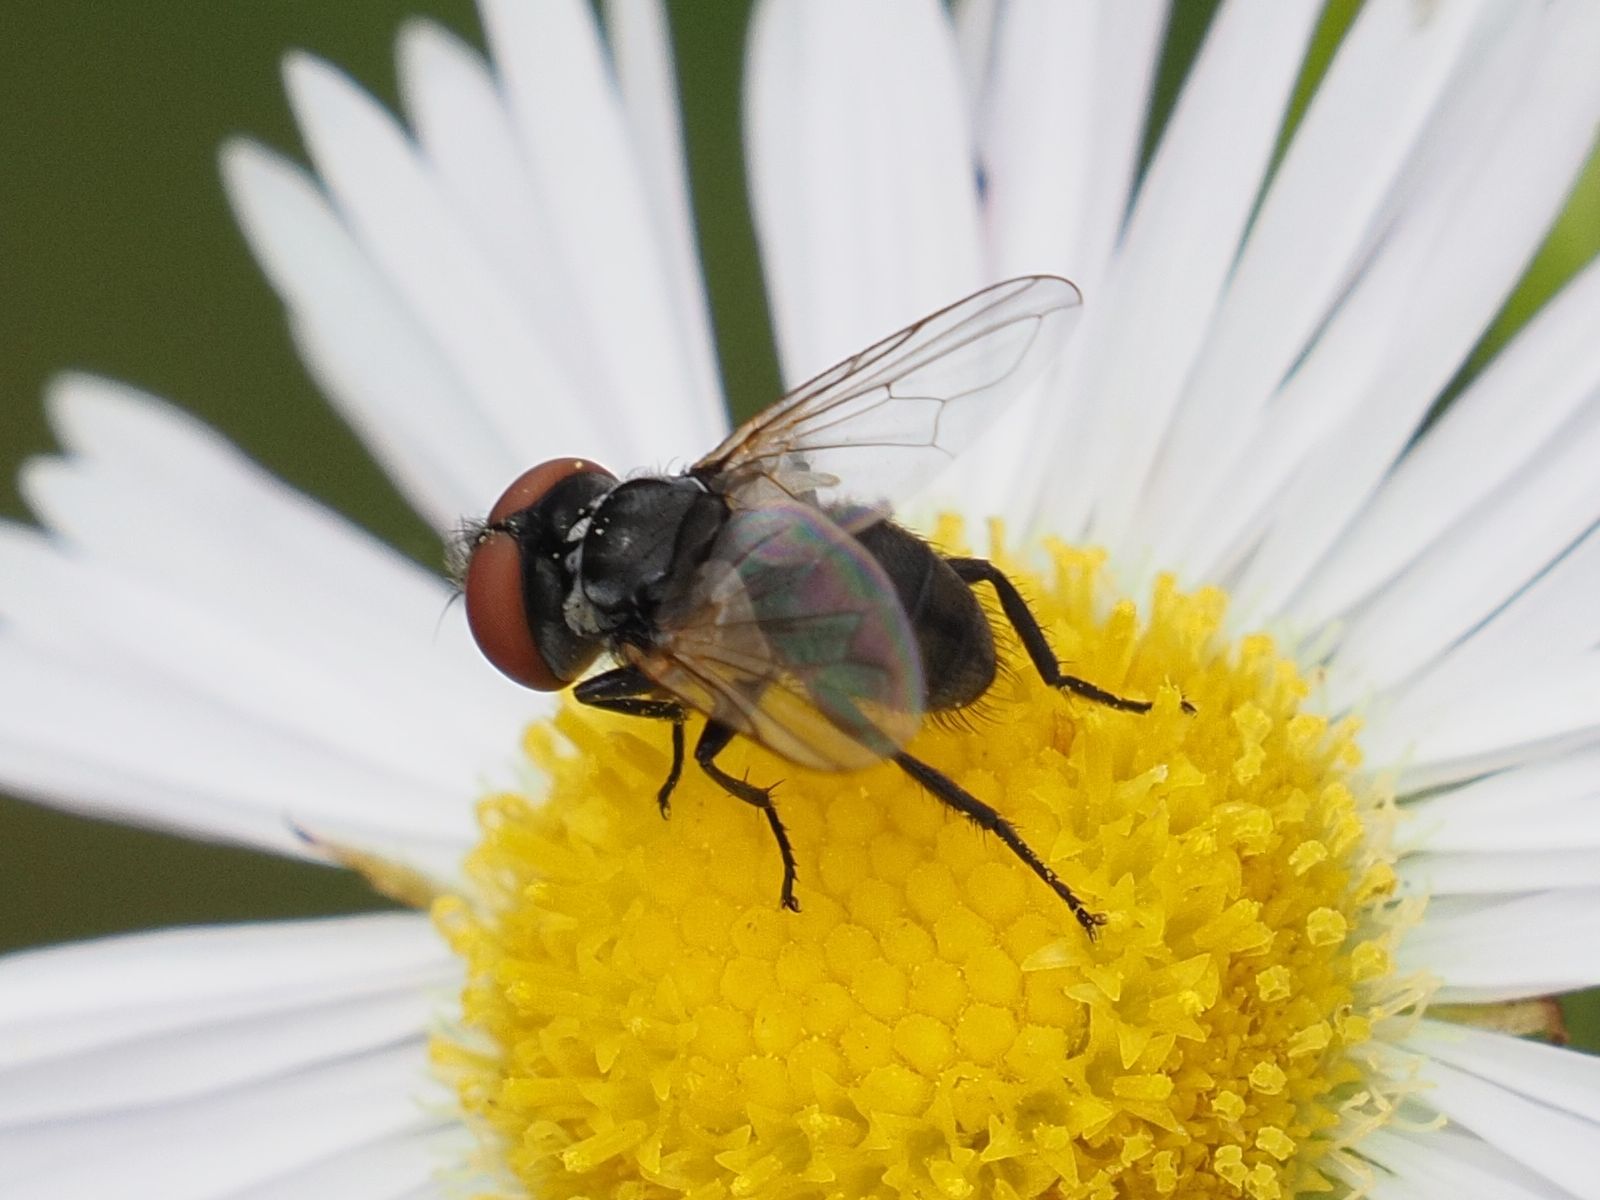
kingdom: Animalia
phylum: Arthropoda
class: Insecta
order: Diptera
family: Tachinidae
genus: Phasia
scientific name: Phasia obesa
